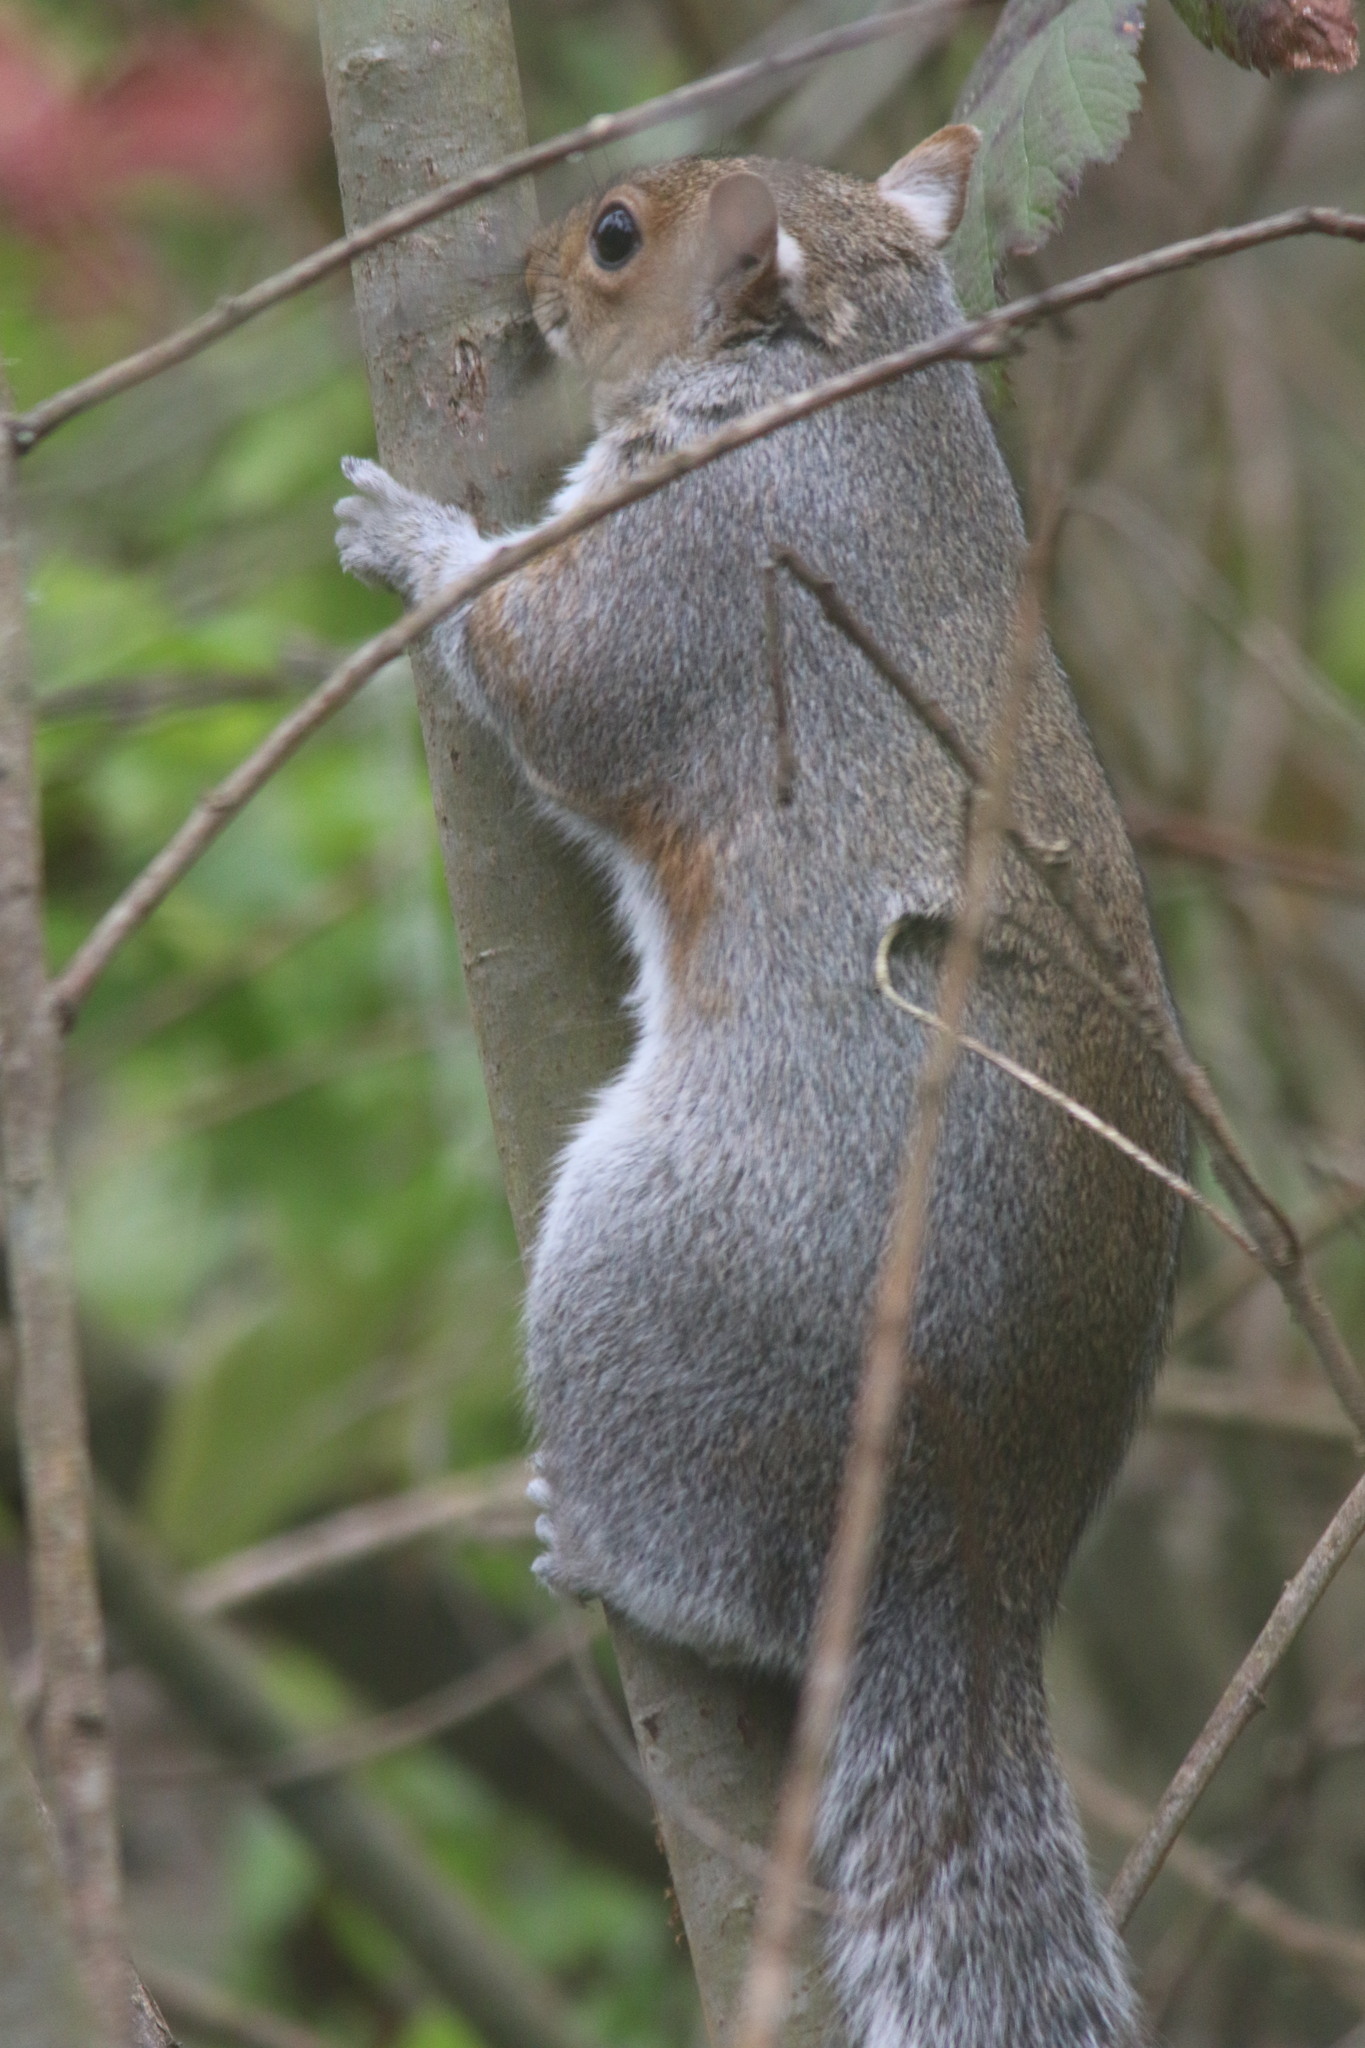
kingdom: Animalia
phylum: Chordata
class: Mammalia
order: Rodentia
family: Sciuridae
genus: Sciurus
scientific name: Sciurus carolinensis
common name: Eastern gray squirrel
